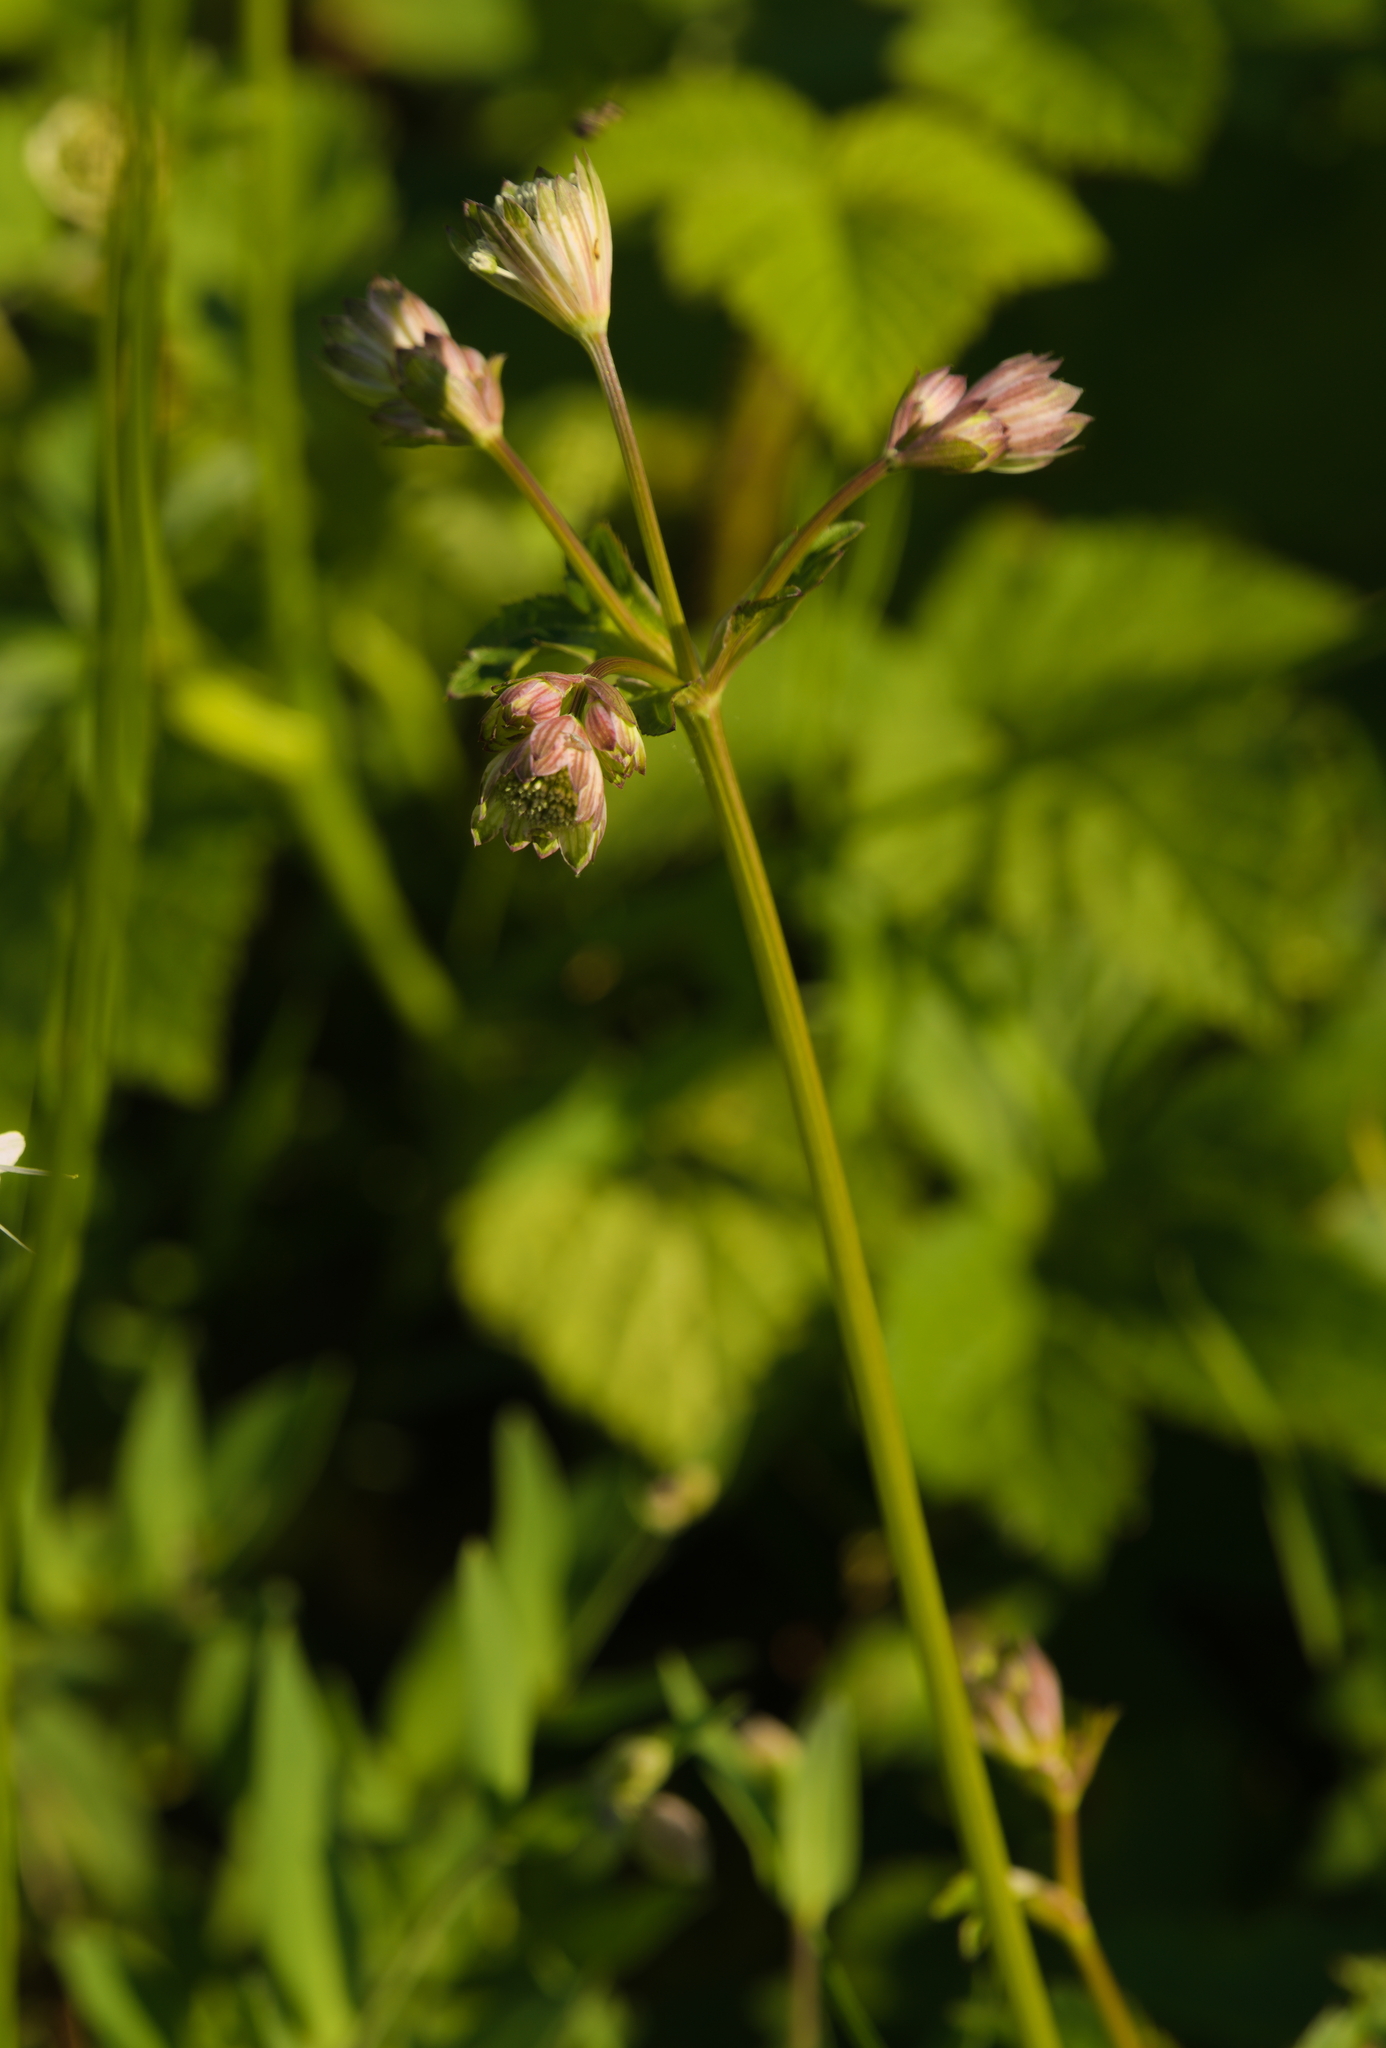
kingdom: Plantae
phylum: Tracheophyta
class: Magnoliopsida
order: Apiales
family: Apiaceae
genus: Astrantia
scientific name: Astrantia major
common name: Greater masterwort
